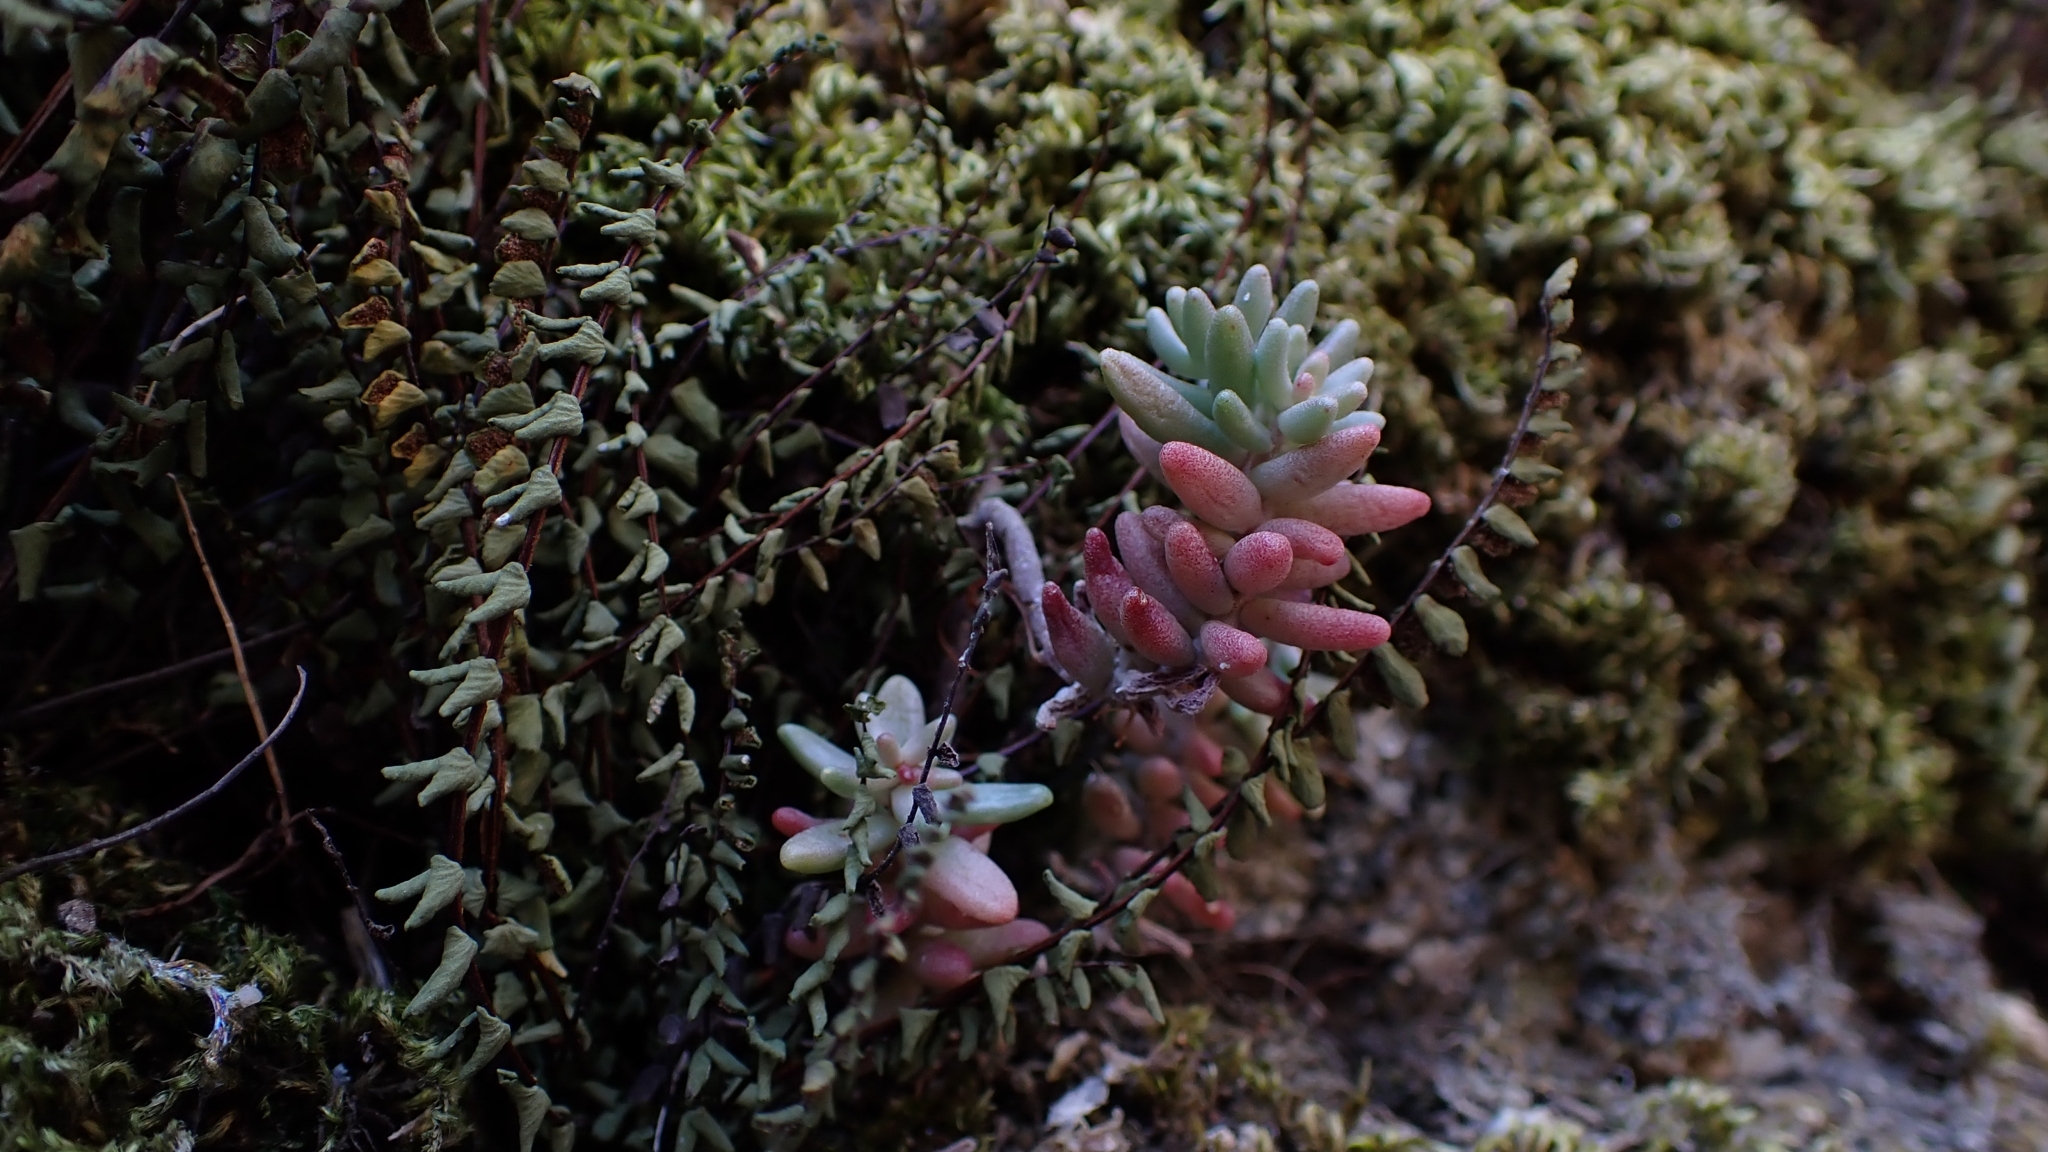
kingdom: Plantae
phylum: Tracheophyta
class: Magnoliopsida
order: Saxifragales
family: Crassulaceae
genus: Sedum
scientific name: Sedum album
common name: White stonecrop
